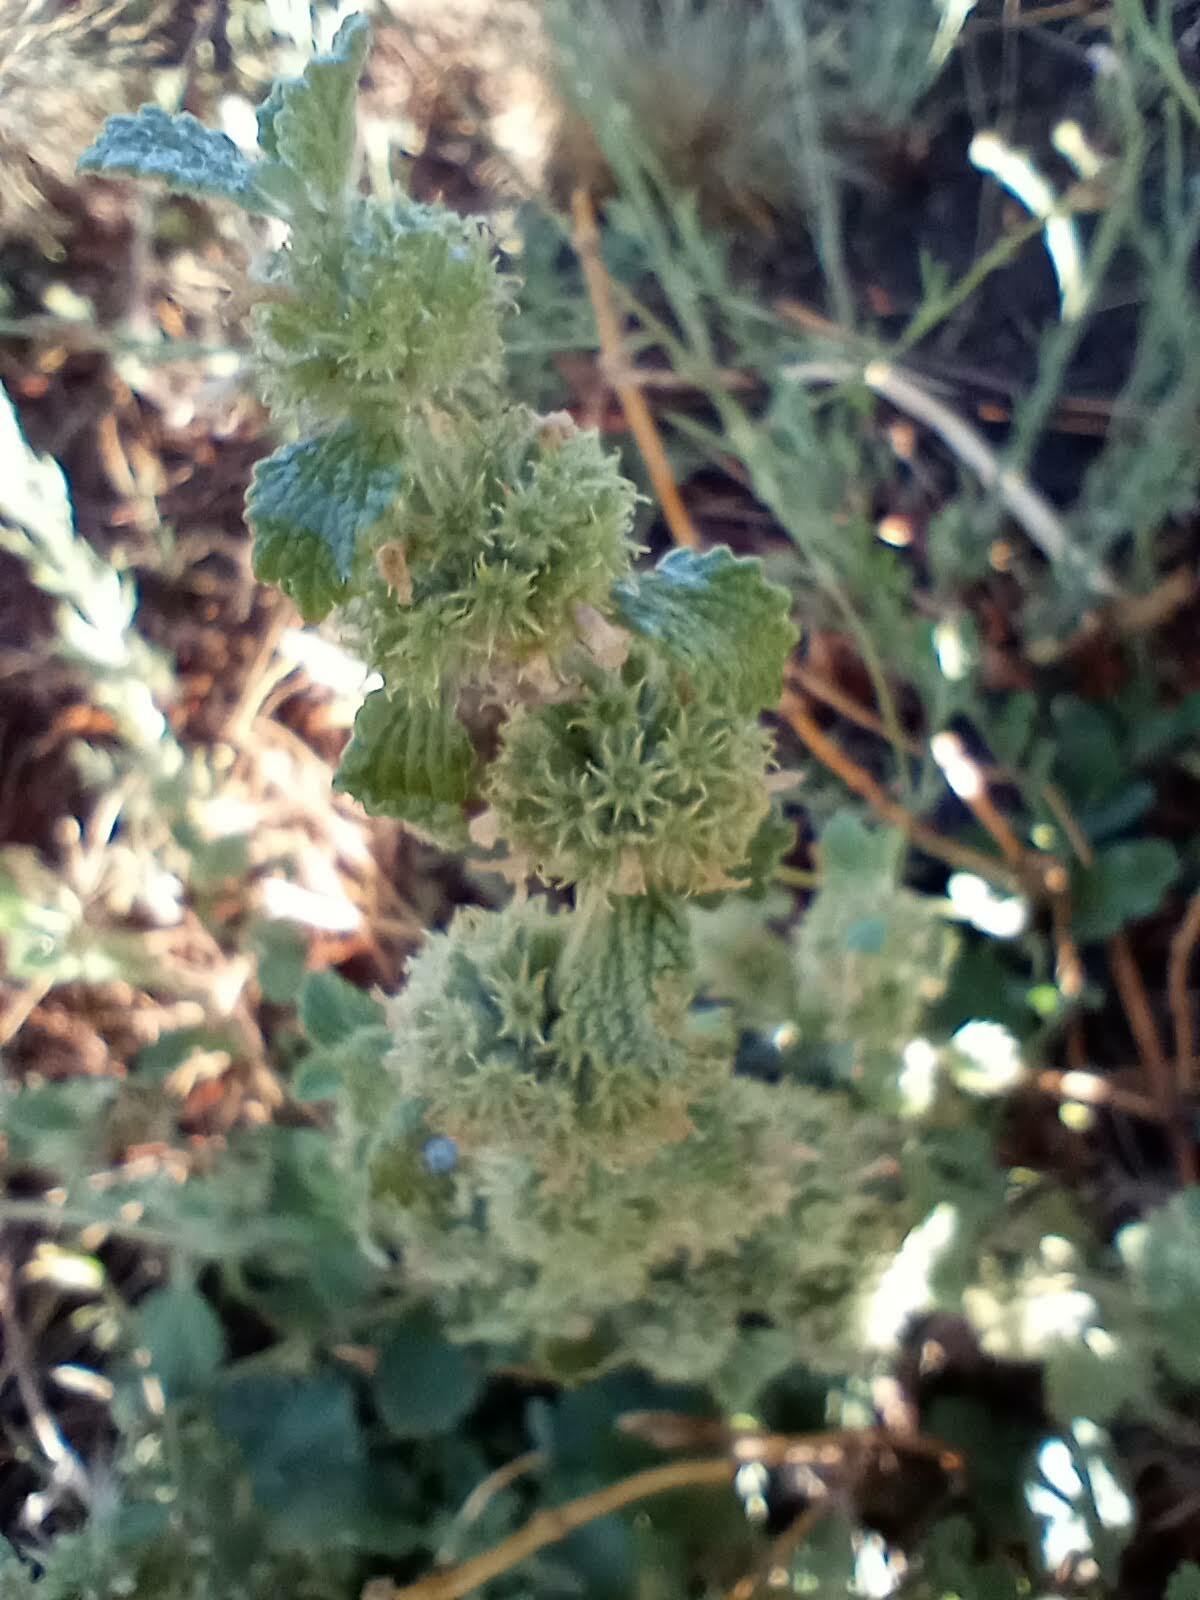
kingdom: Plantae
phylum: Tracheophyta
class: Magnoliopsida
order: Lamiales
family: Lamiaceae
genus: Marrubium
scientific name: Marrubium vulgare
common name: Horehound
